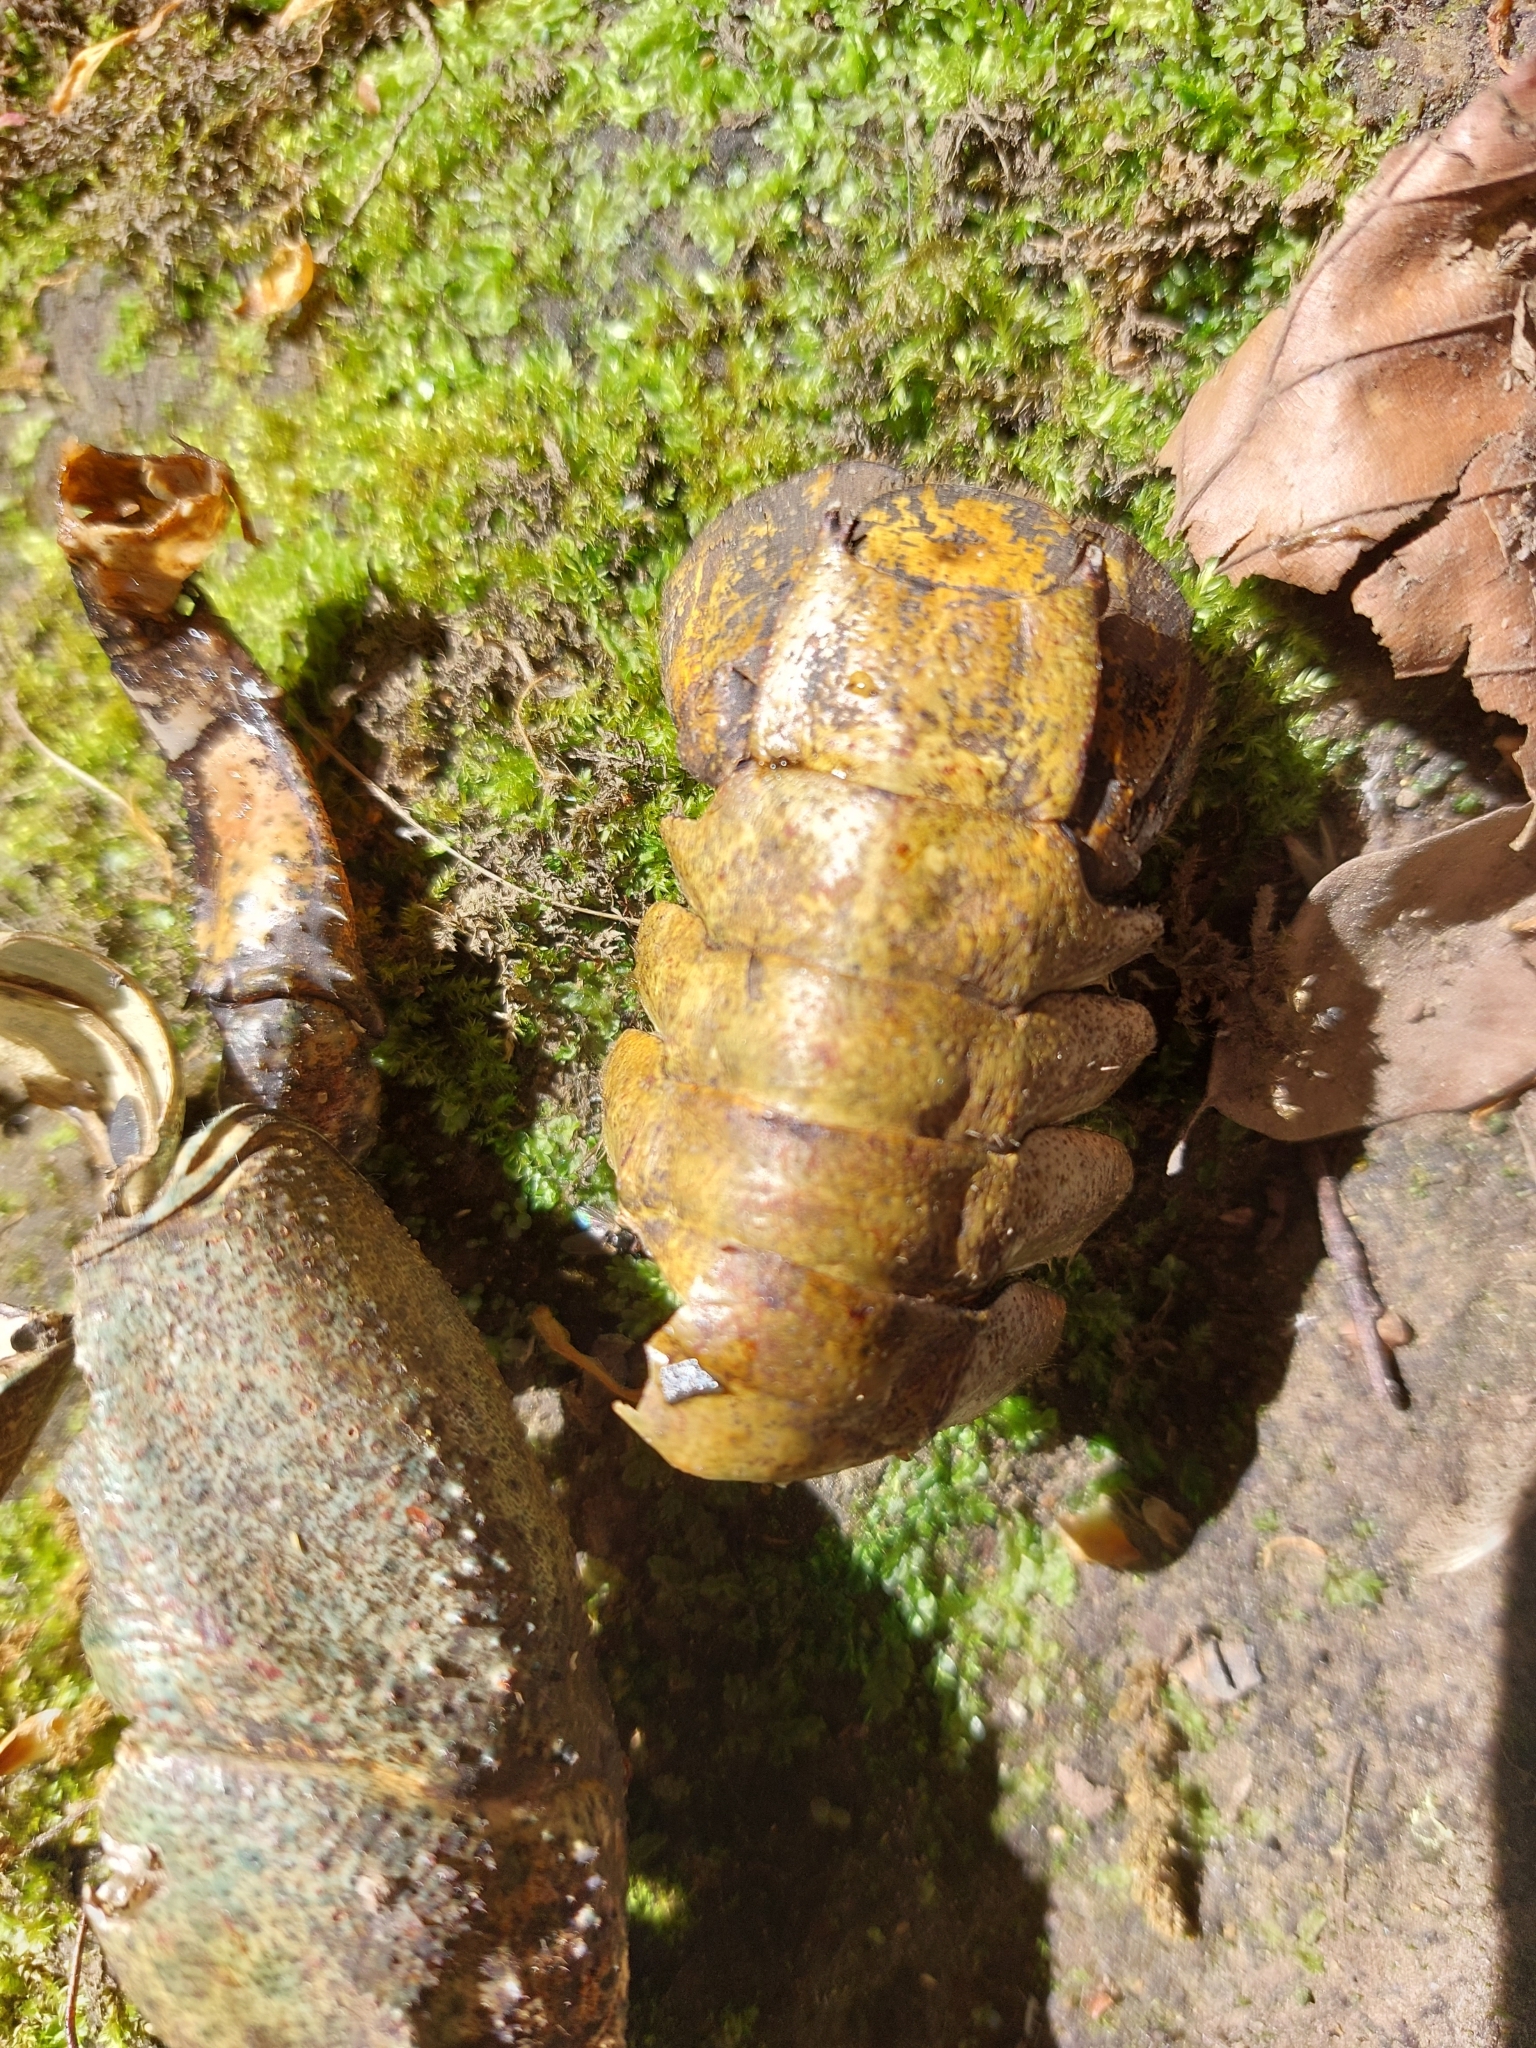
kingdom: Animalia
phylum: Arthropoda
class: Malacostraca
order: Decapoda
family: Astacidae
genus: Austropotamobius
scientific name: Austropotamobius pallipes
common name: White-clawed crayfish
